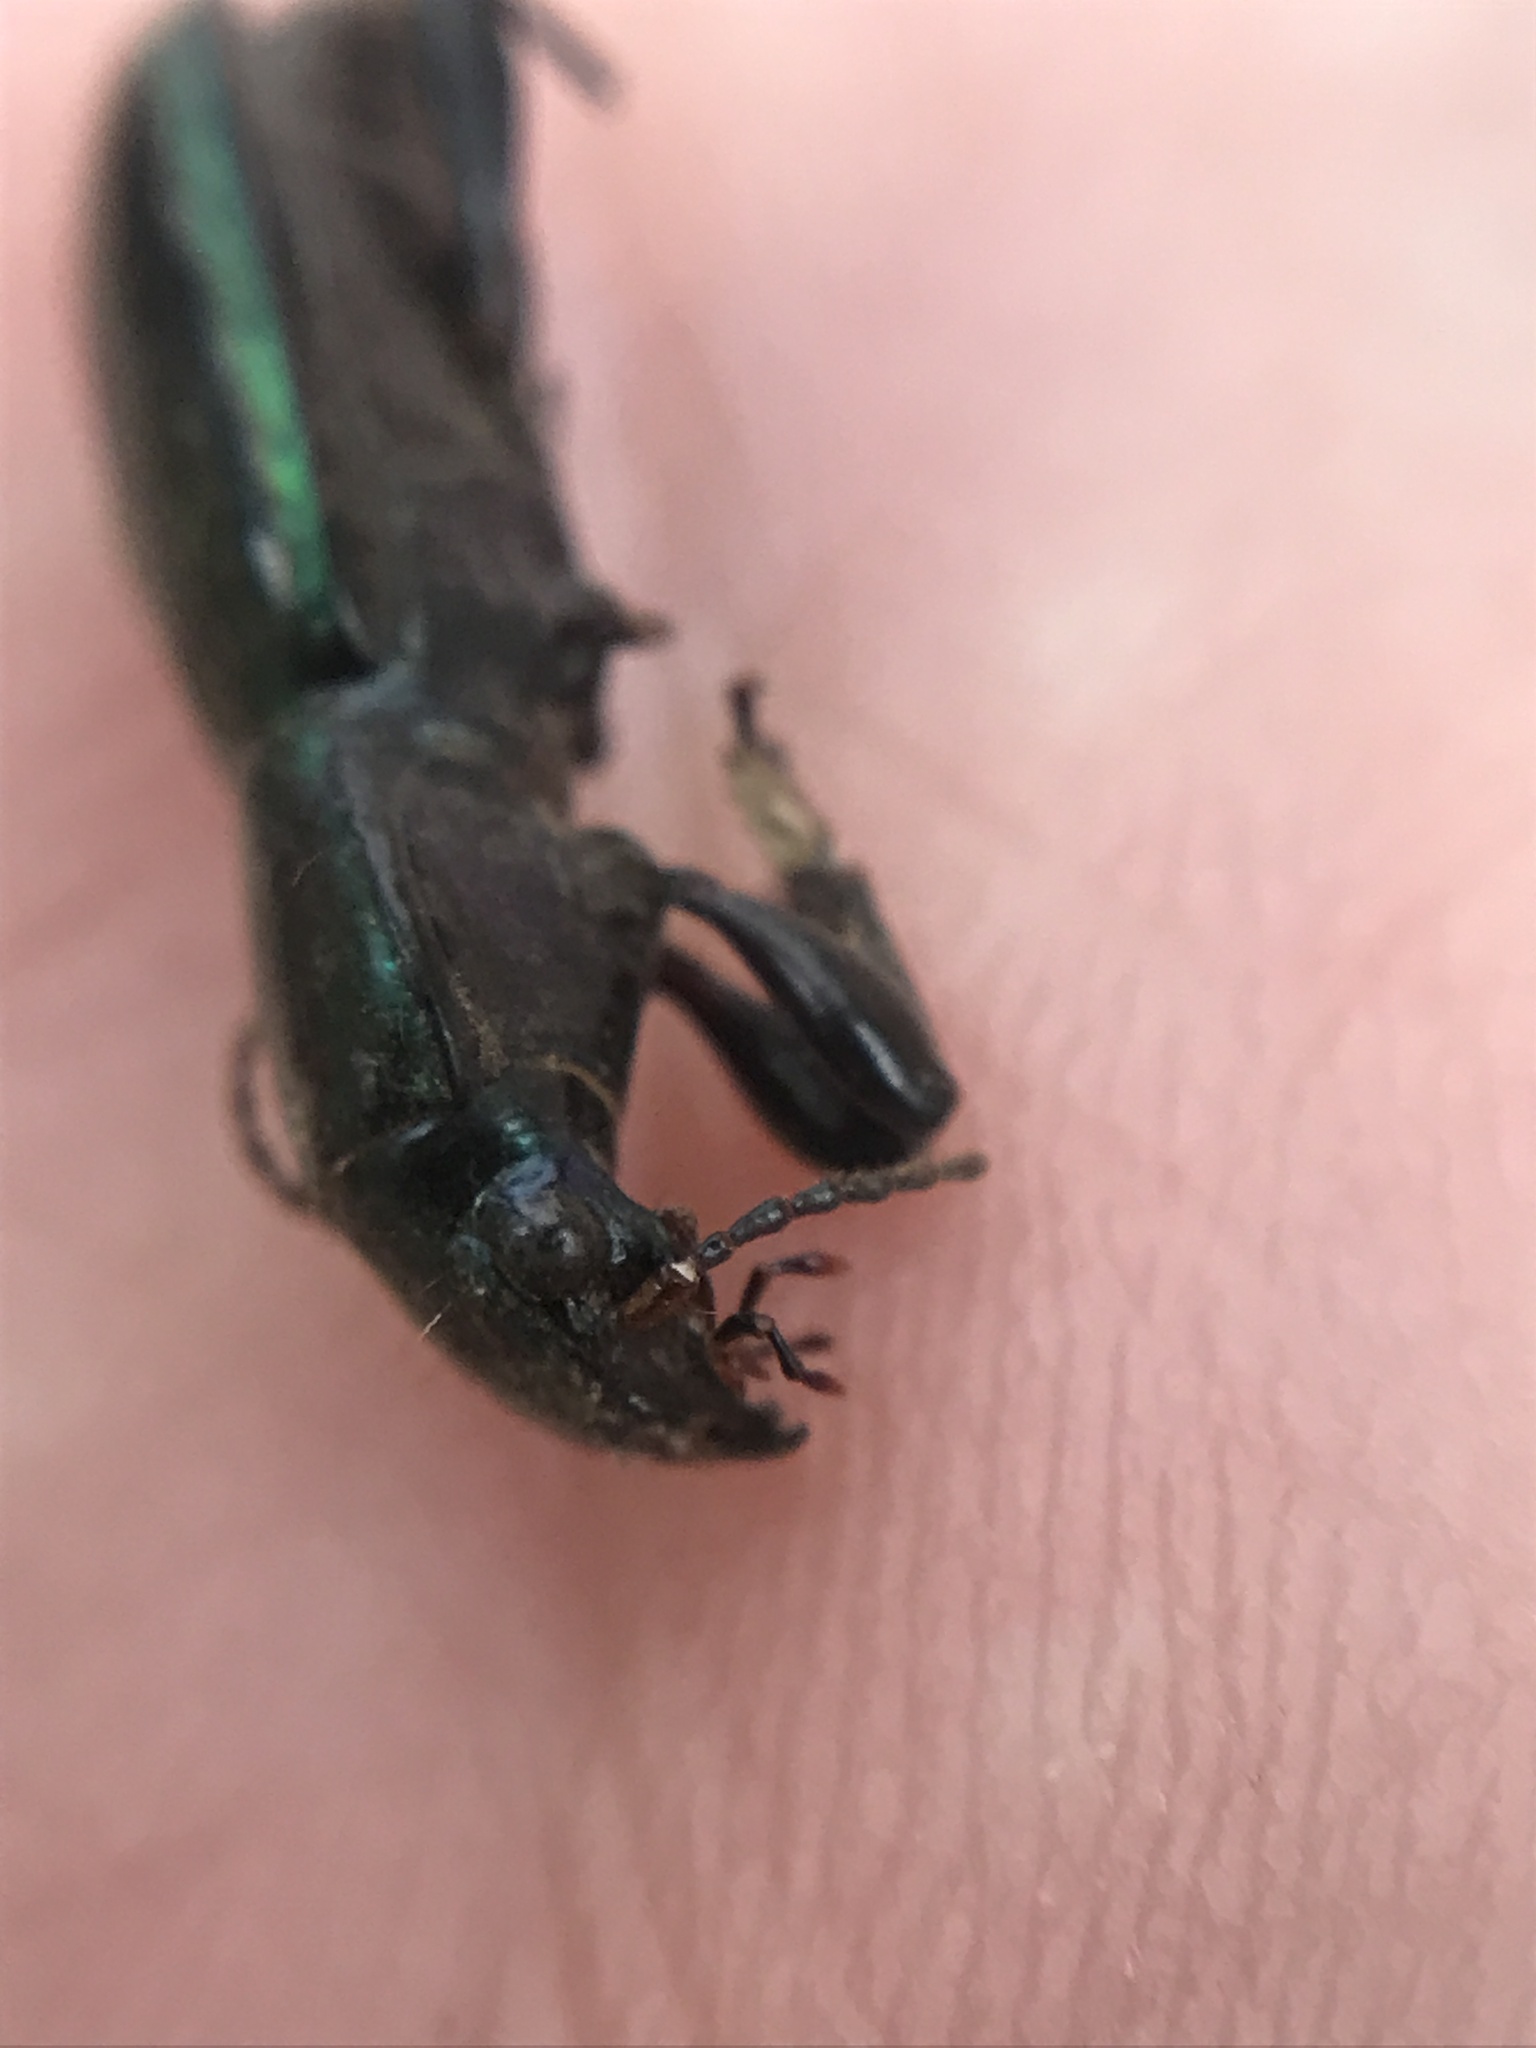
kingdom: Animalia
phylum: Arthropoda
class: Insecta
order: Coleoptera
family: Carabidae
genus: Creobius
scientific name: Creobius eydouxii
